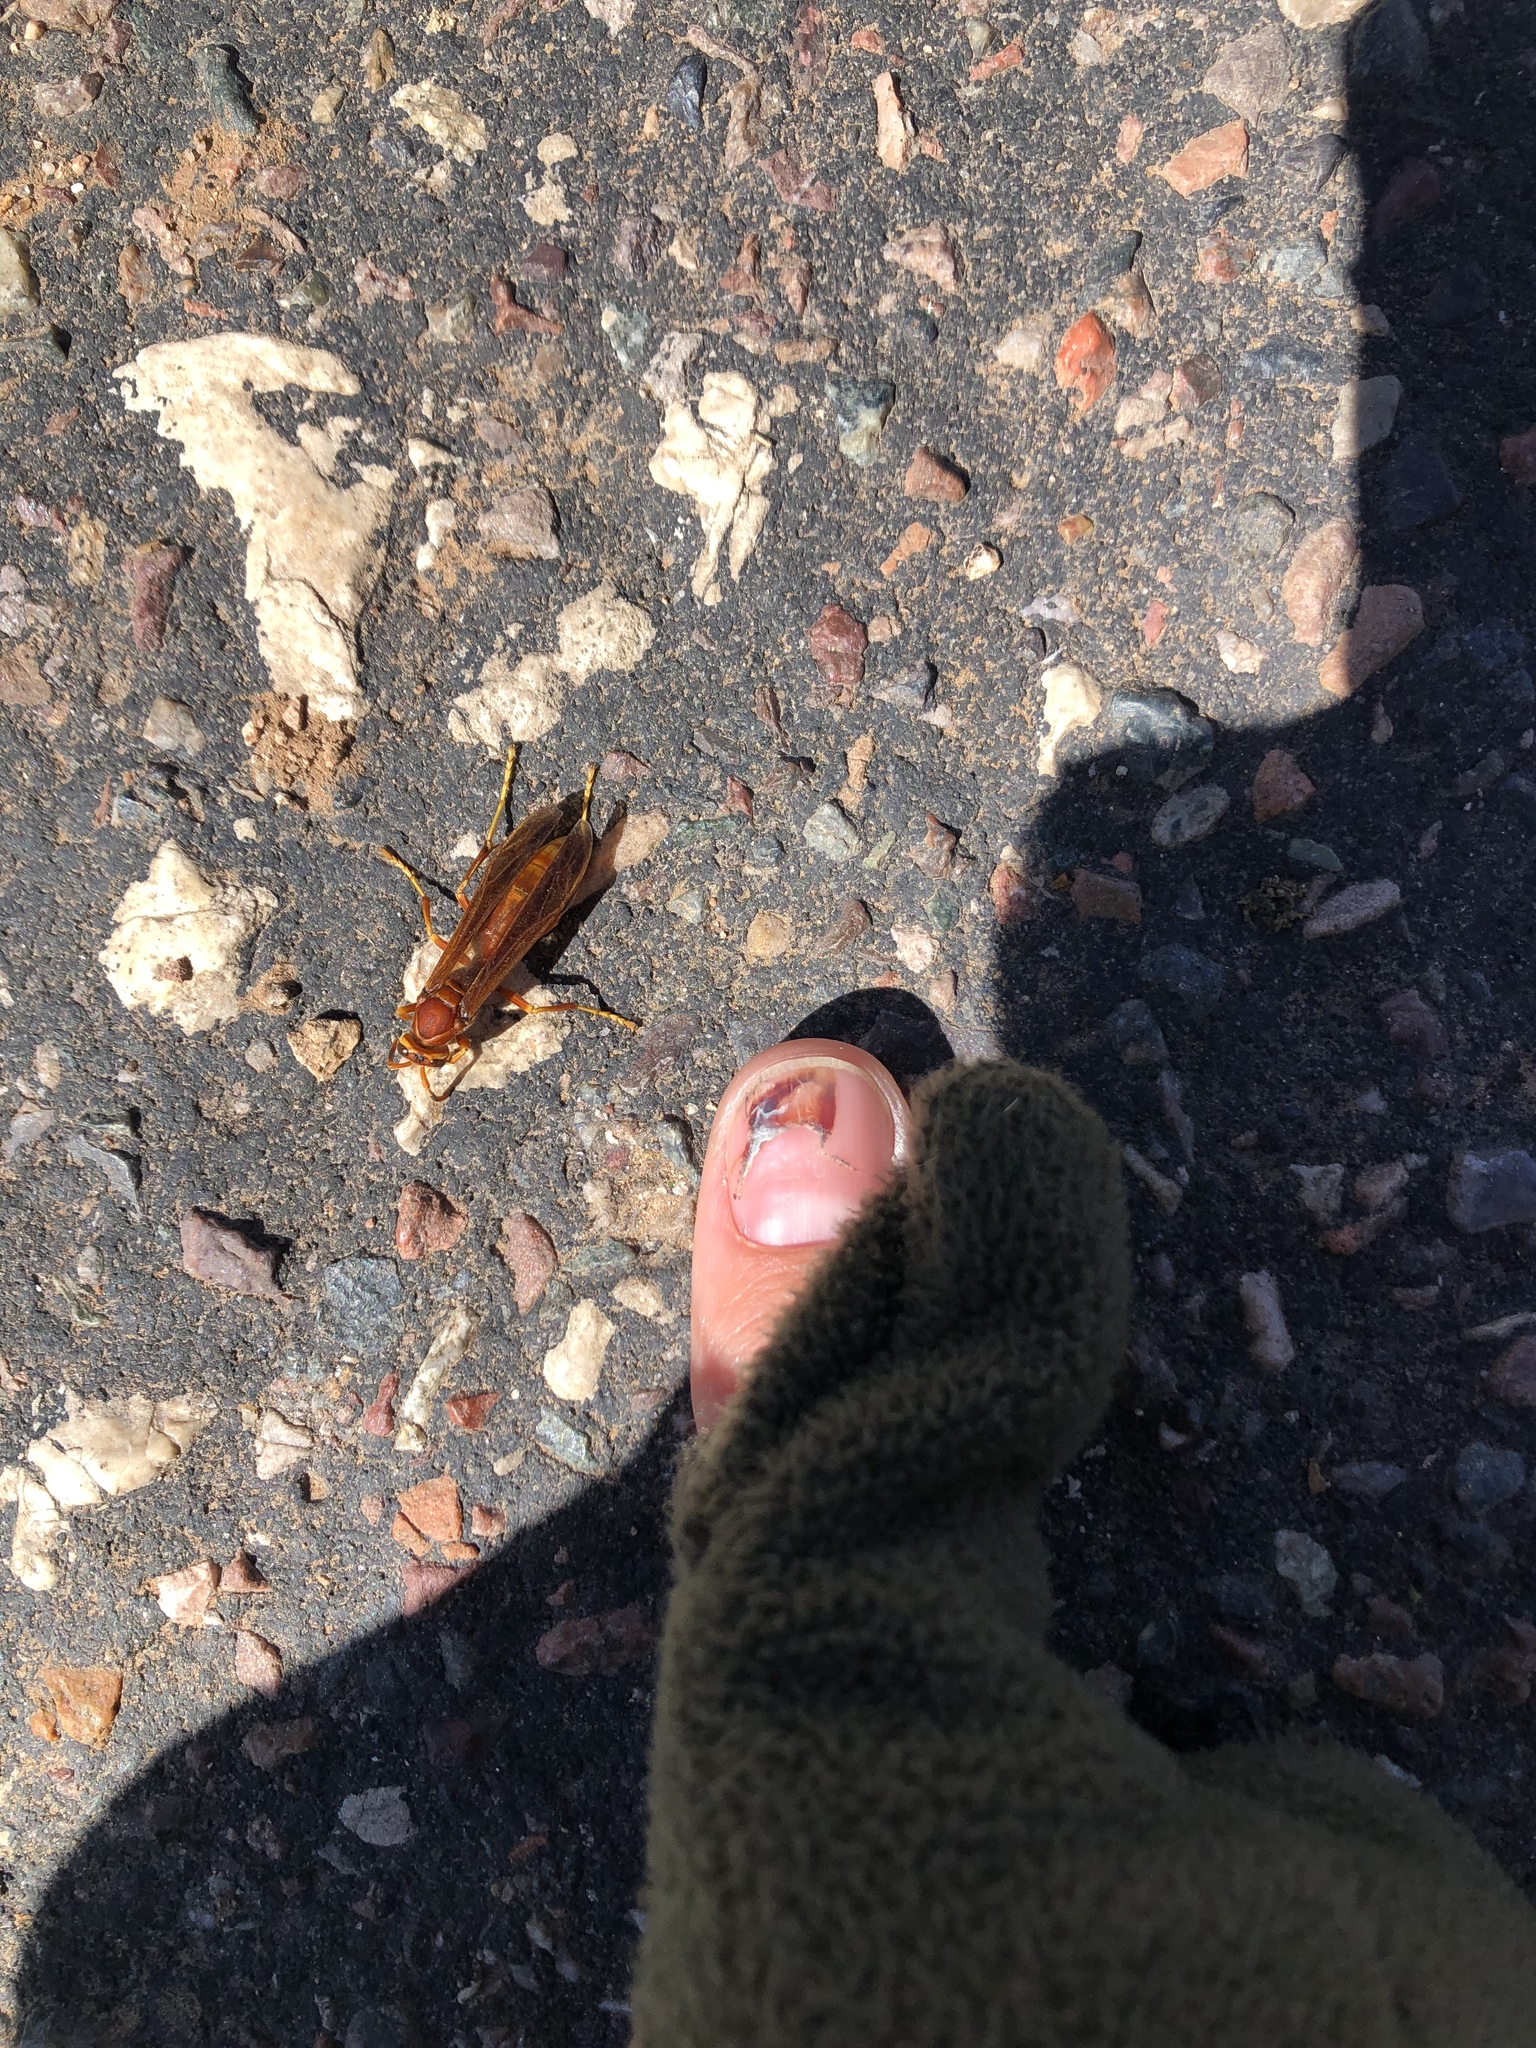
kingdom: Animalia
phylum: Arthropoda
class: Insecta
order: Hymenoptera
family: Eumenidae
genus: Polistes
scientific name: Polistes kaibabensis
